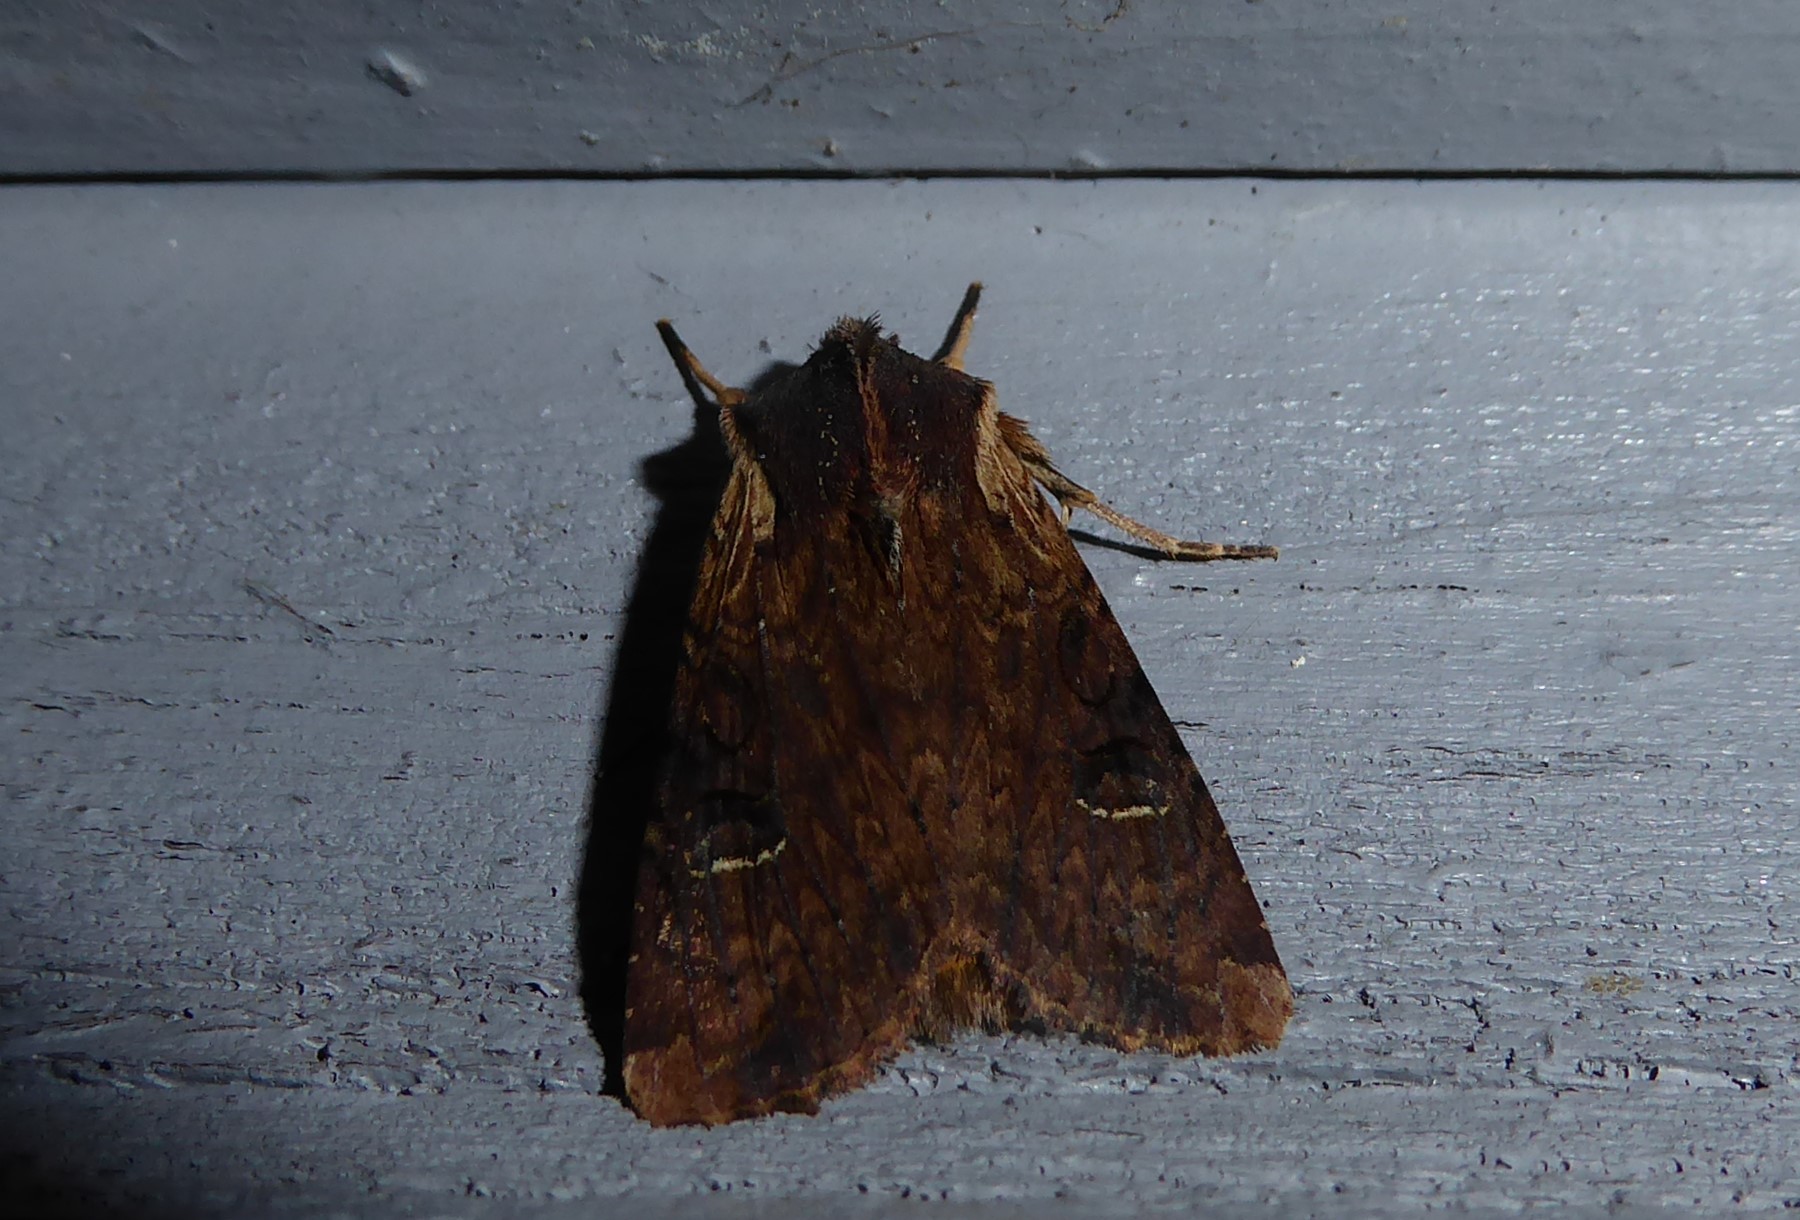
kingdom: Animalia
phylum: Arthropoda
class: Insecta
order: Lepidoptera
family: Noctuidae
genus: Ichneutica
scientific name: Ichneutica omoplaca
